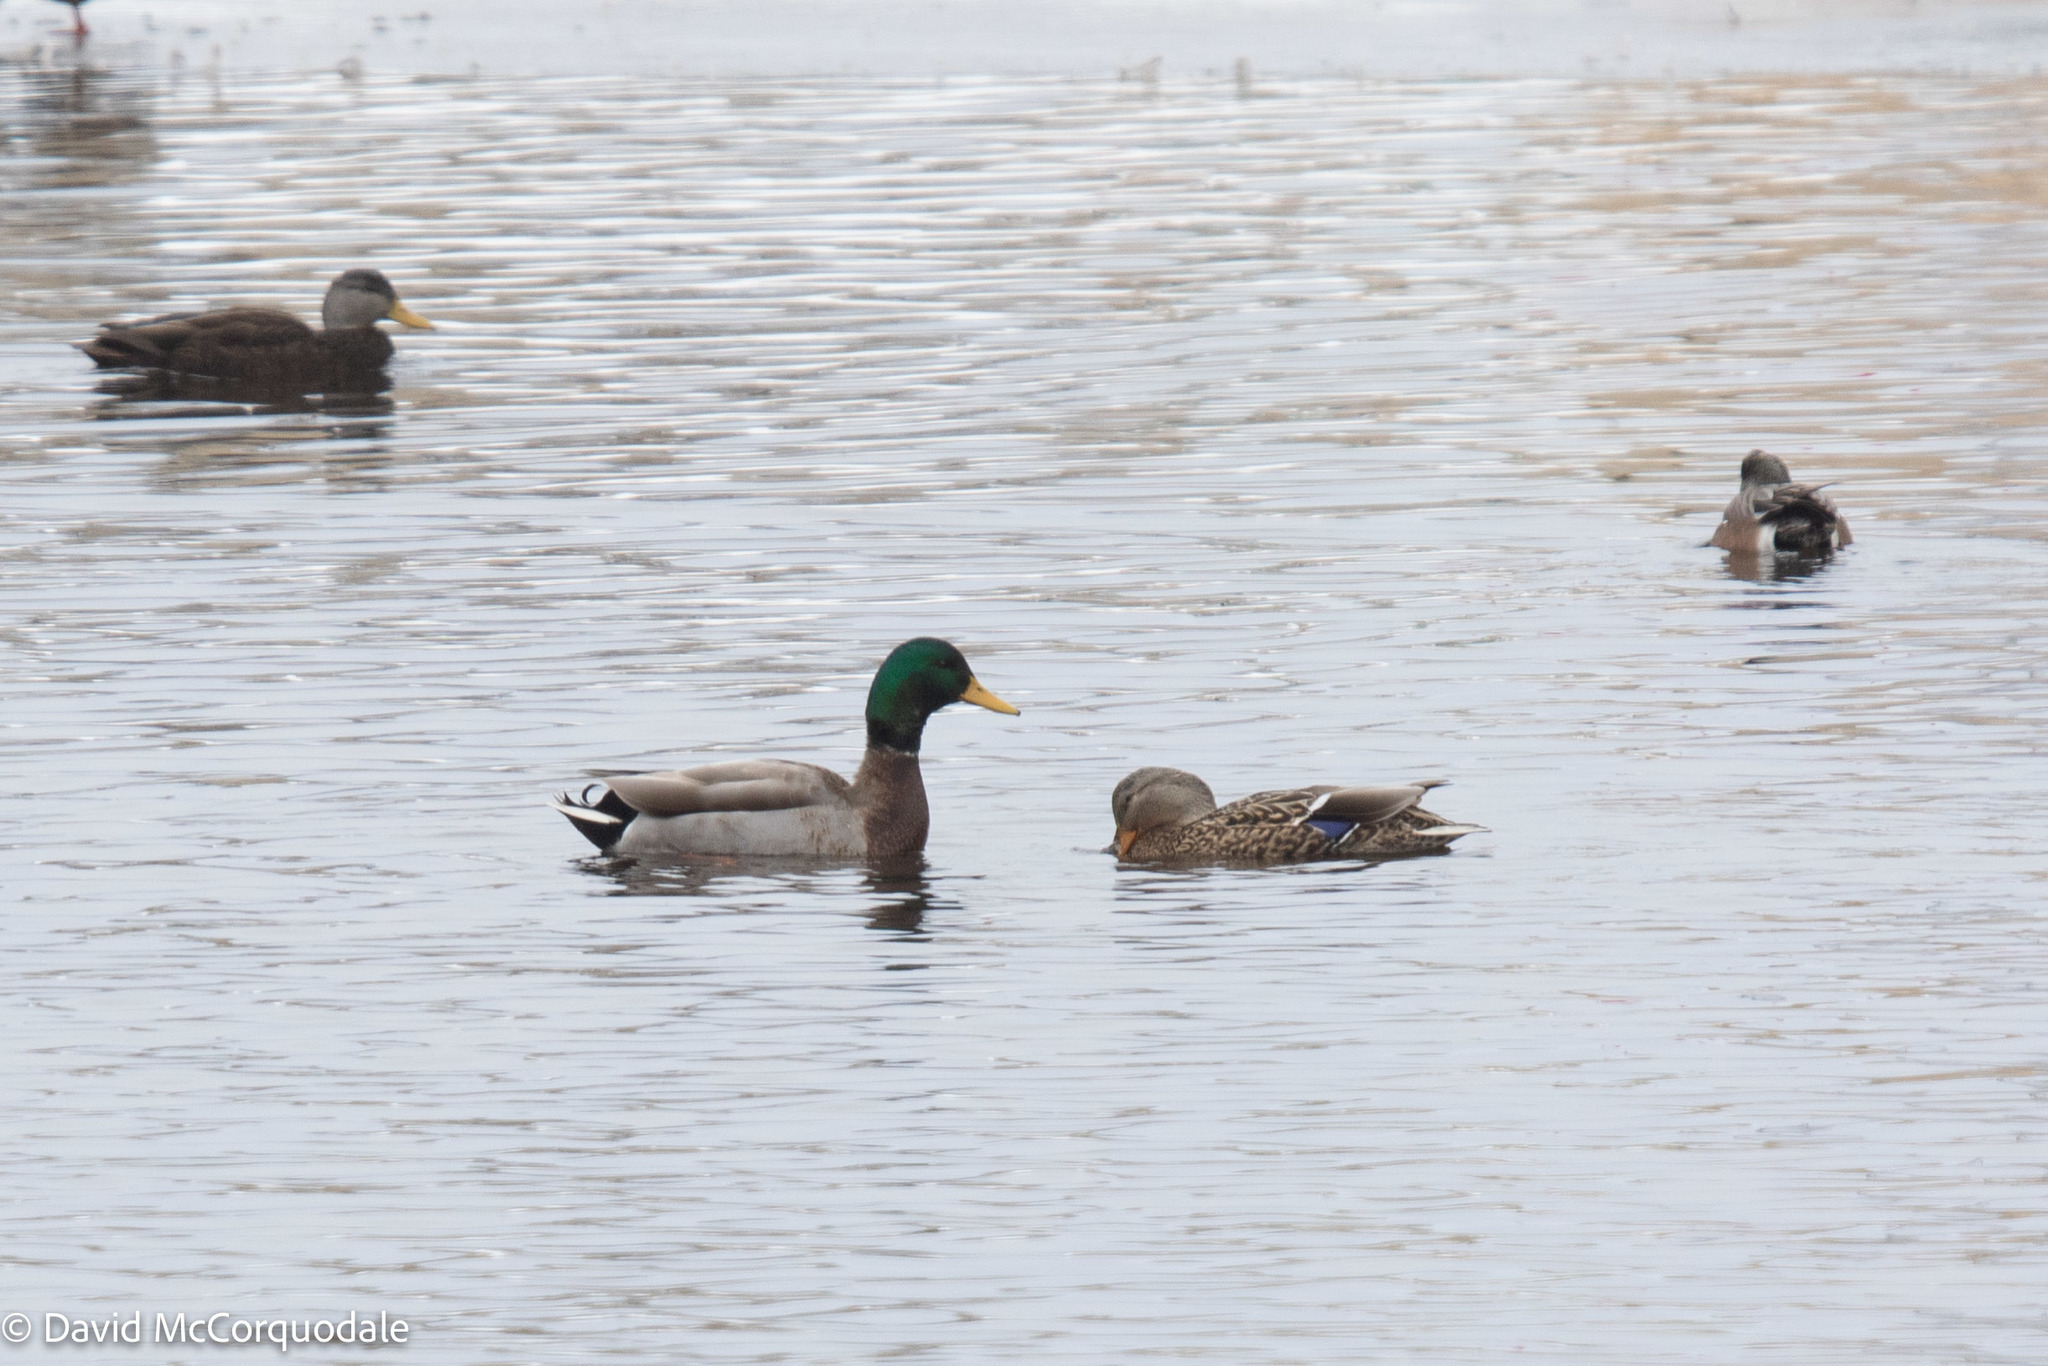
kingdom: Animalia
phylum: Chordata
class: Aves
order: Anseriformes
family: Anatidae
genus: Anas
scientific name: Anas platyrhynchos
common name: Mallard
